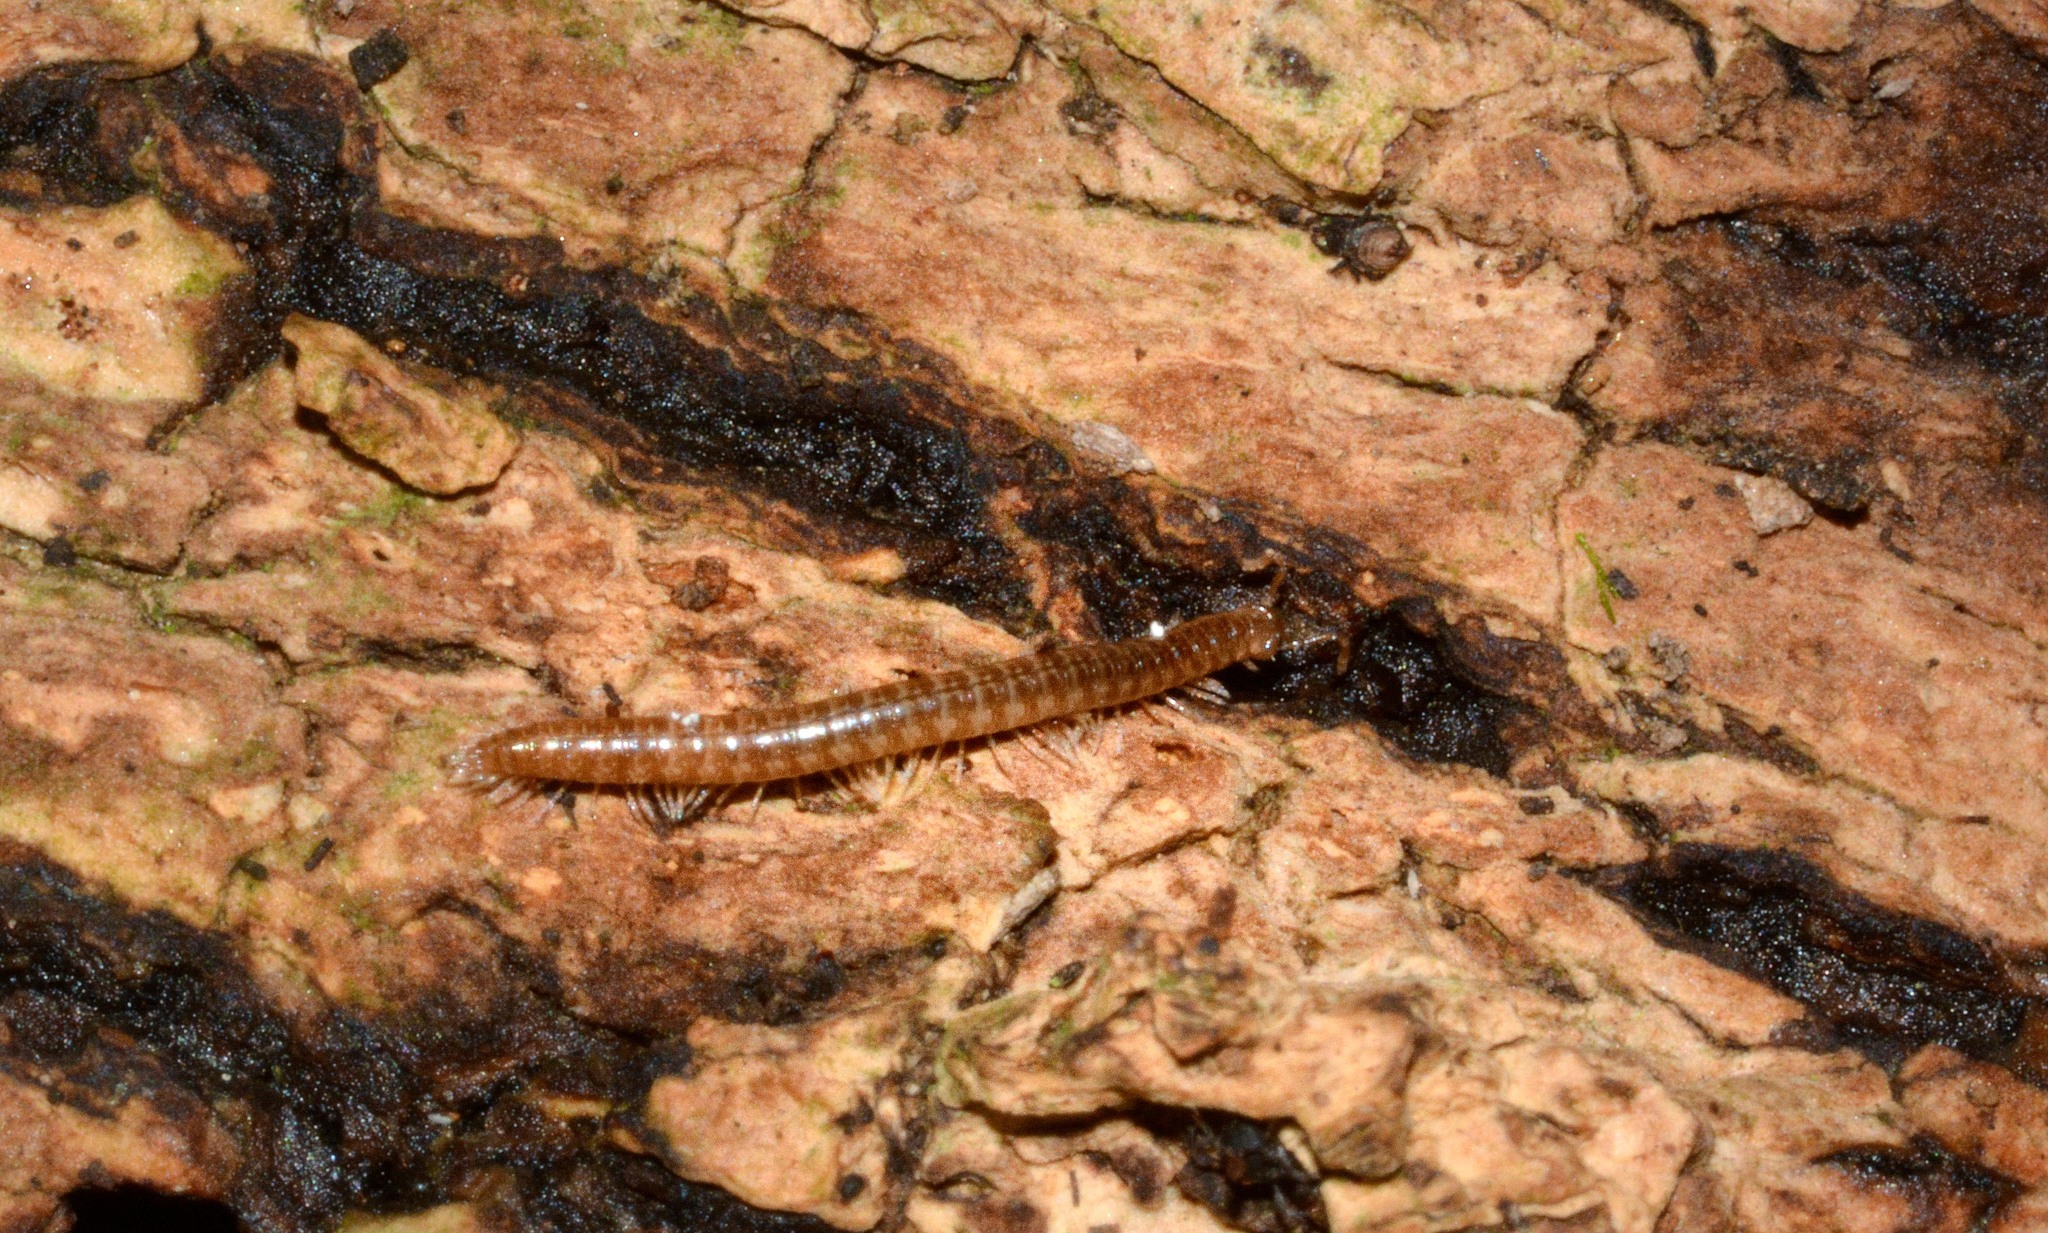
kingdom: Animalia
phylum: Arthropoda
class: Diplopoda
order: Chordeumatida
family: Chordeumatidae
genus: Chordeuma
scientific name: Chordeuma
